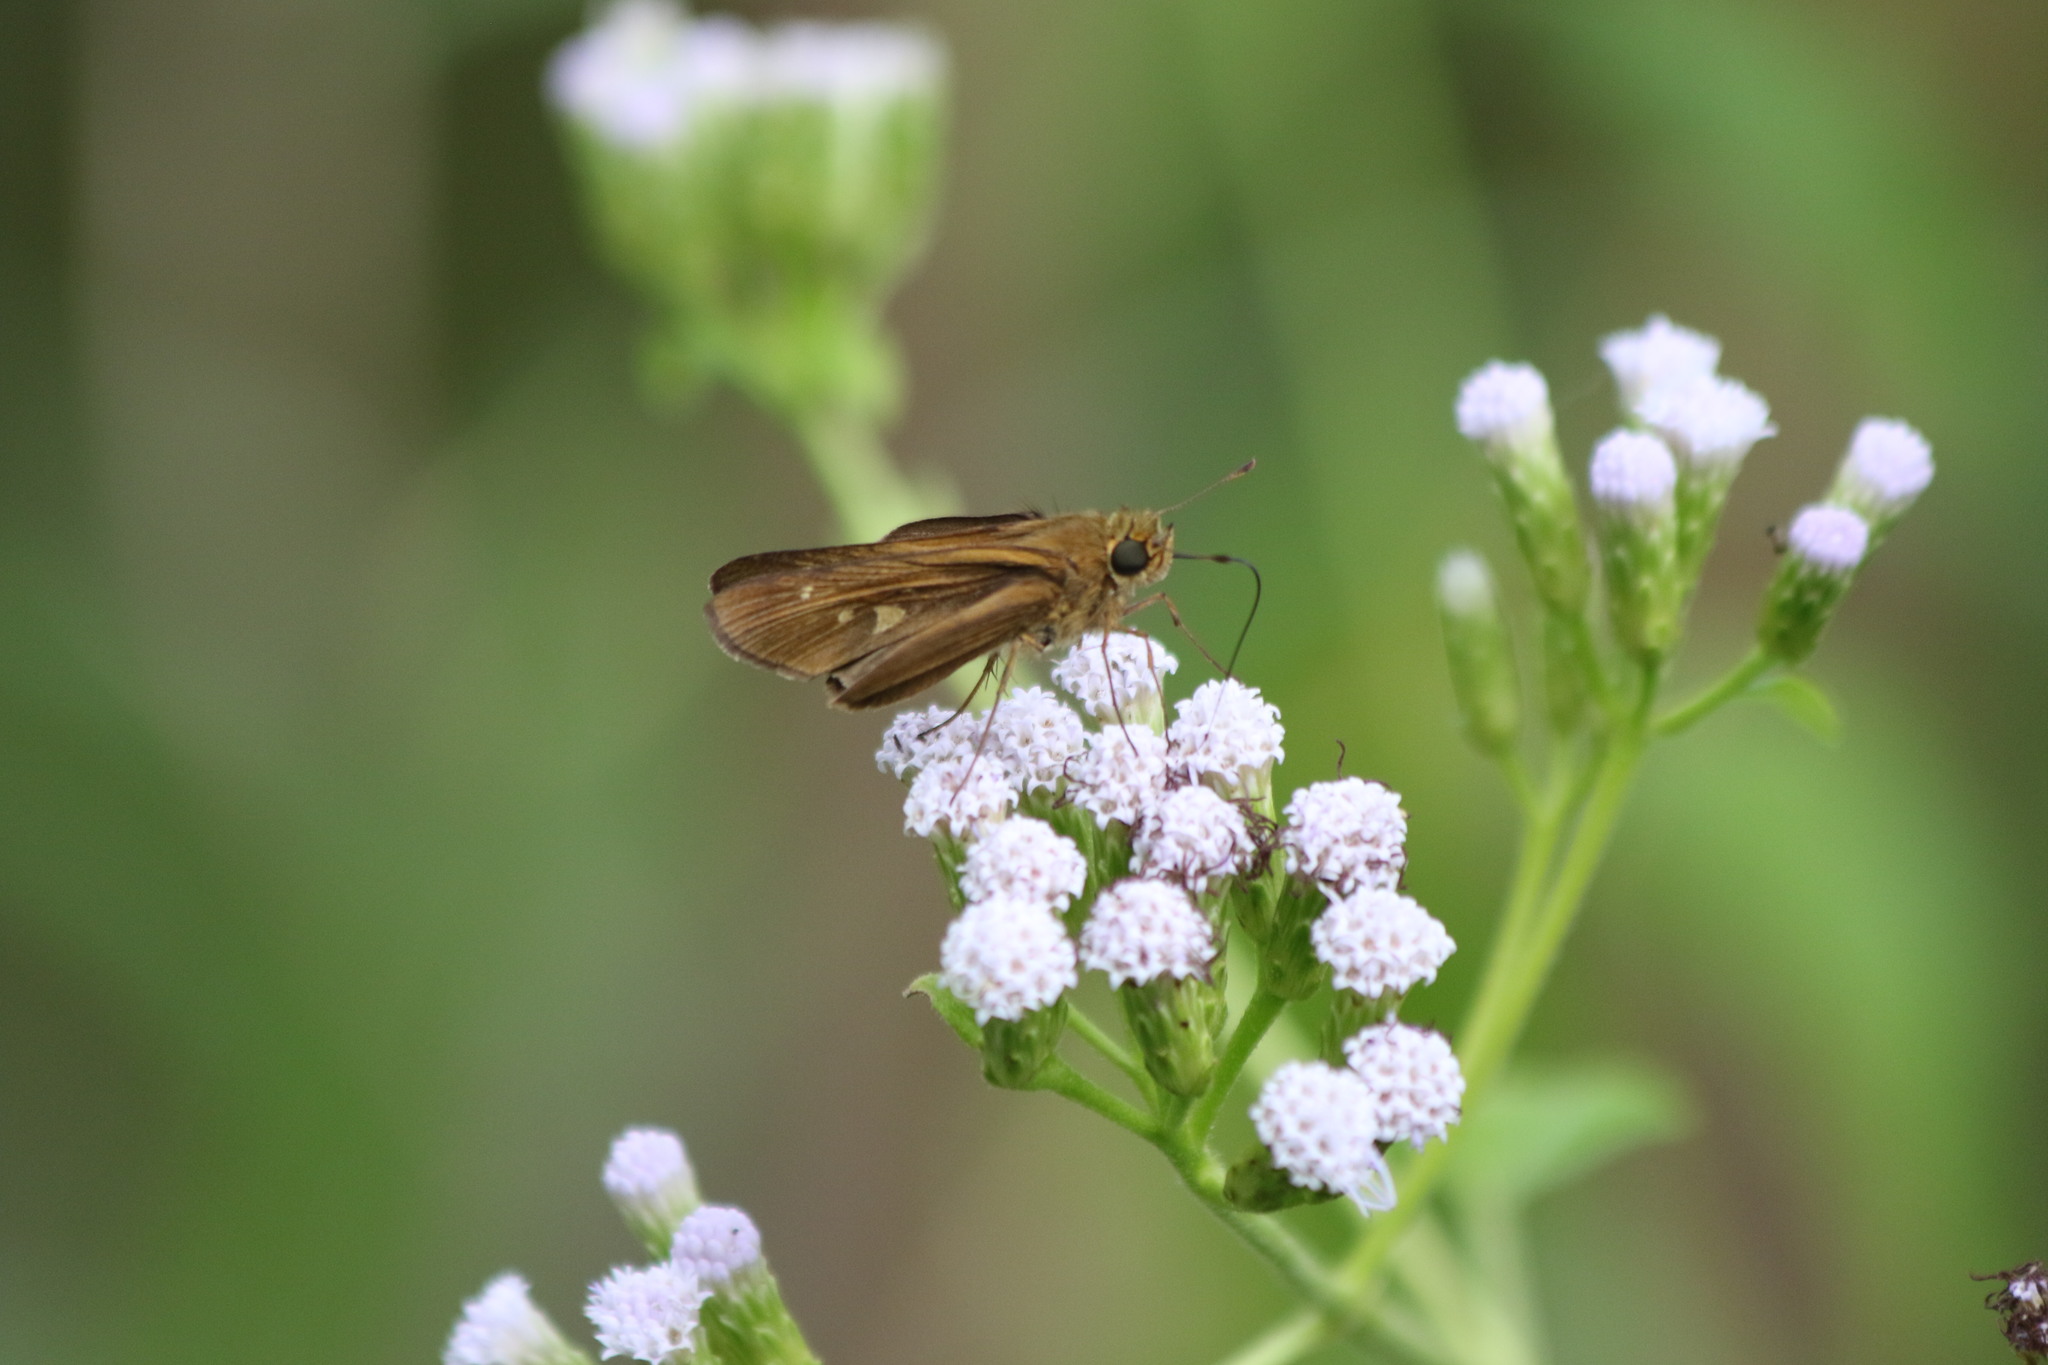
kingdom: Animalia
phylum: Arthropoda
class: Insecta
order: Lepidoptera
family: Hesperiidae
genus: Panoquina
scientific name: Panoquina ocola
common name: Ocola skipper
